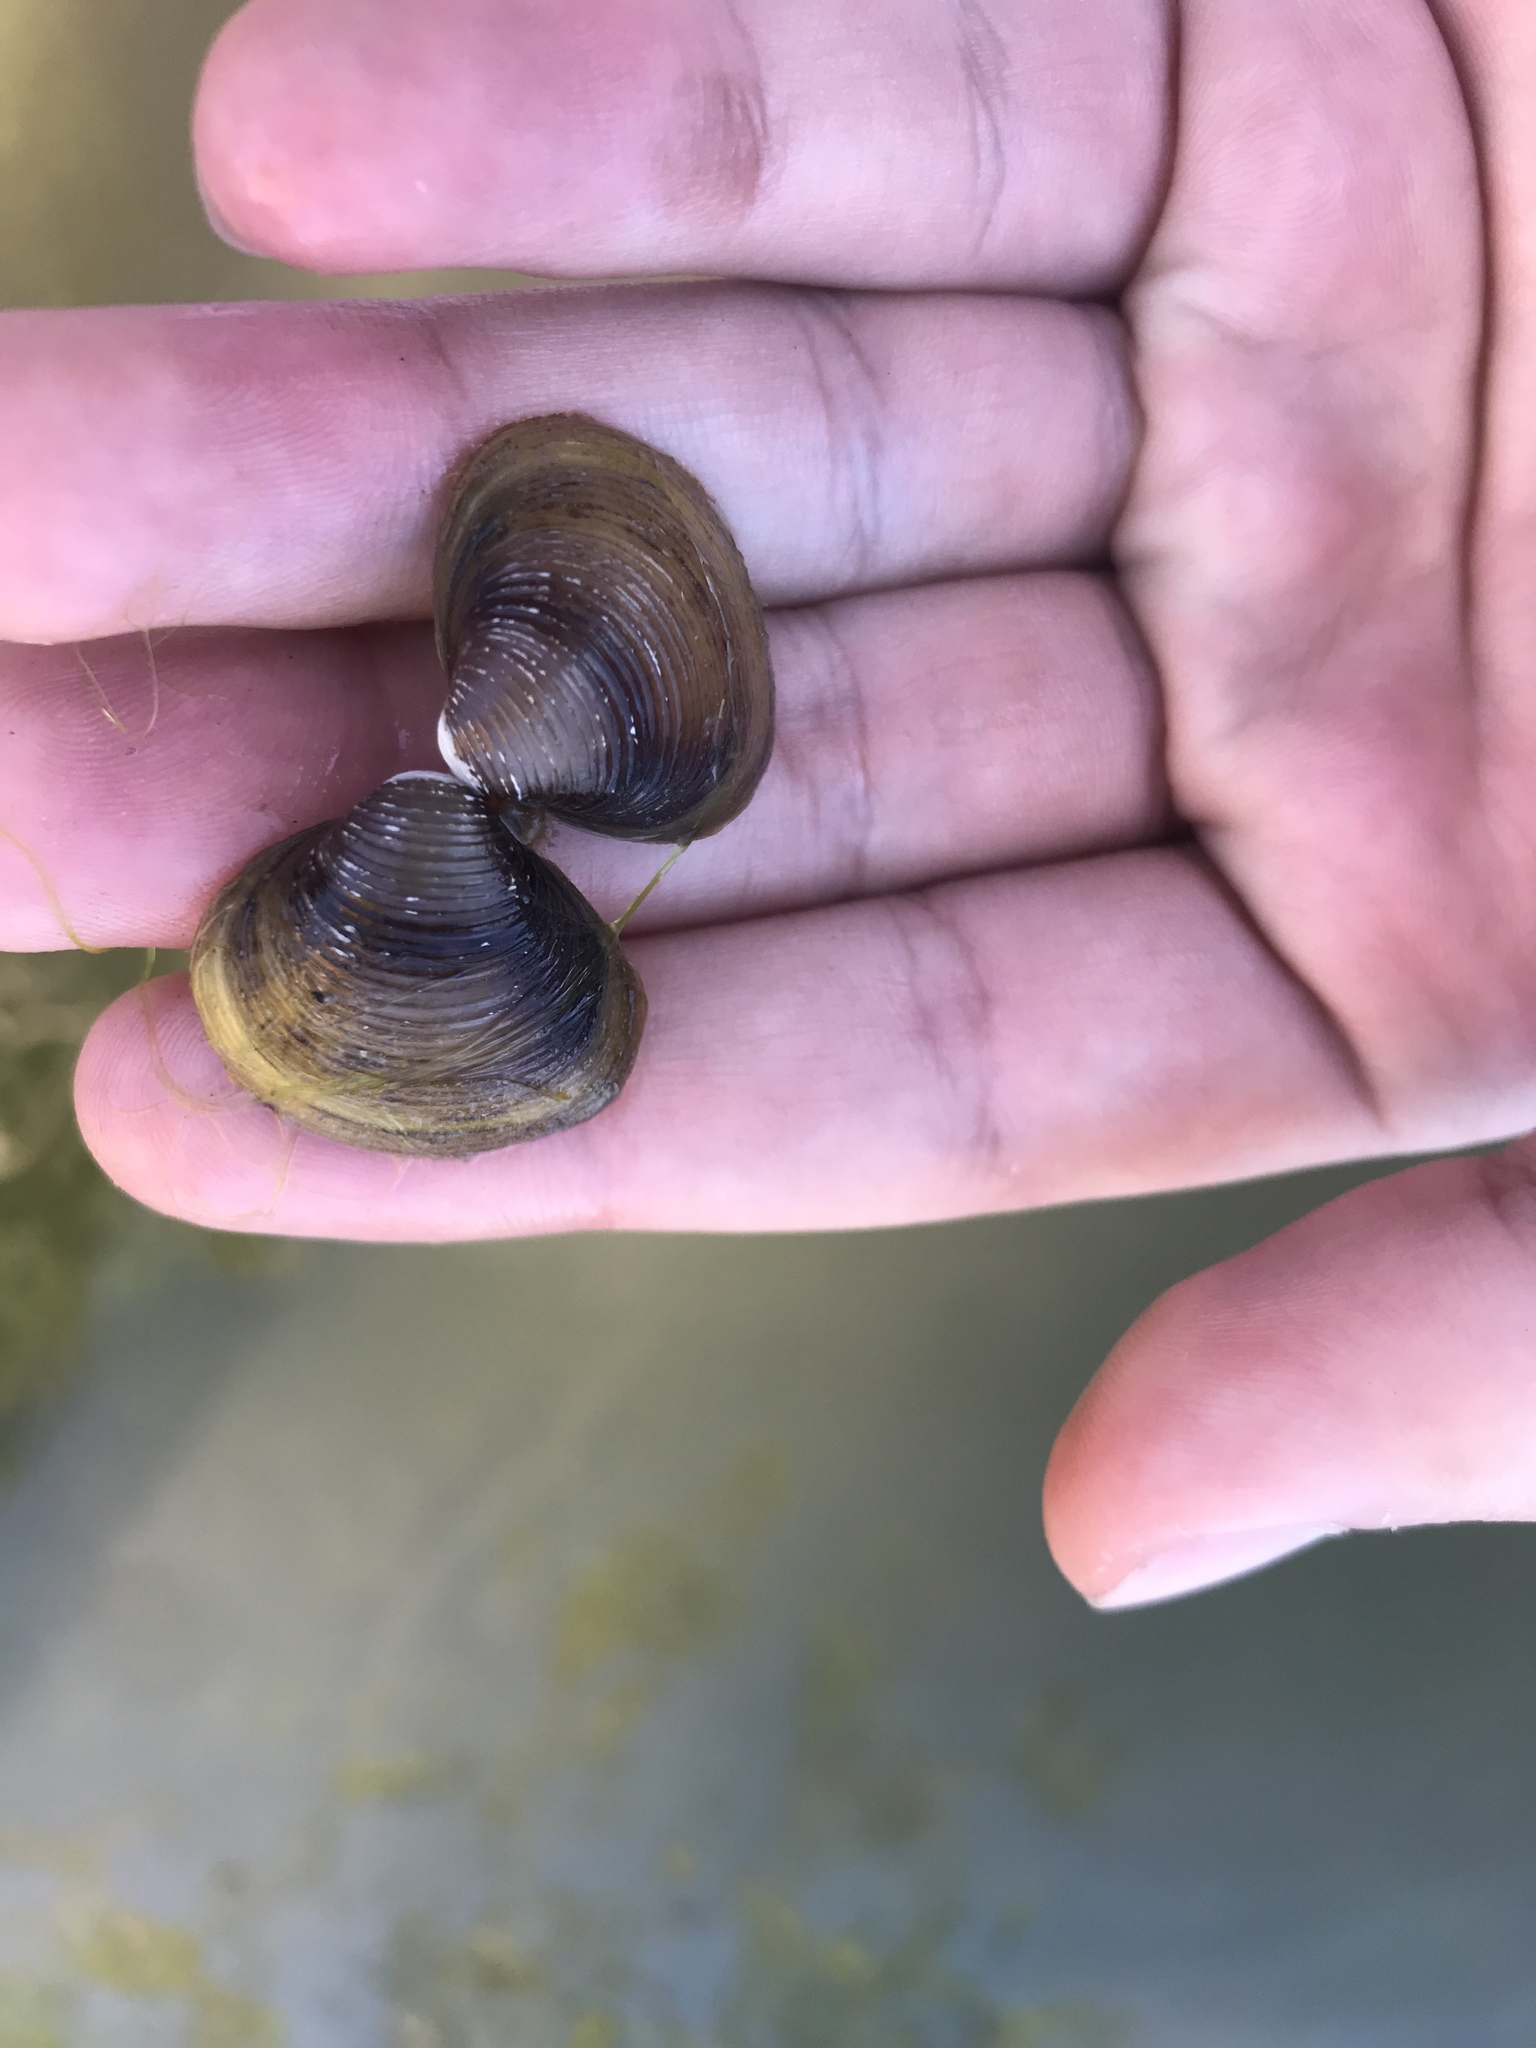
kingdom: Animalia
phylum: Mollusca
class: Bivalvia
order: Venerida
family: Cyrenidae
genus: Corbicula
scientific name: Corbicula fluminea
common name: Asian clam
